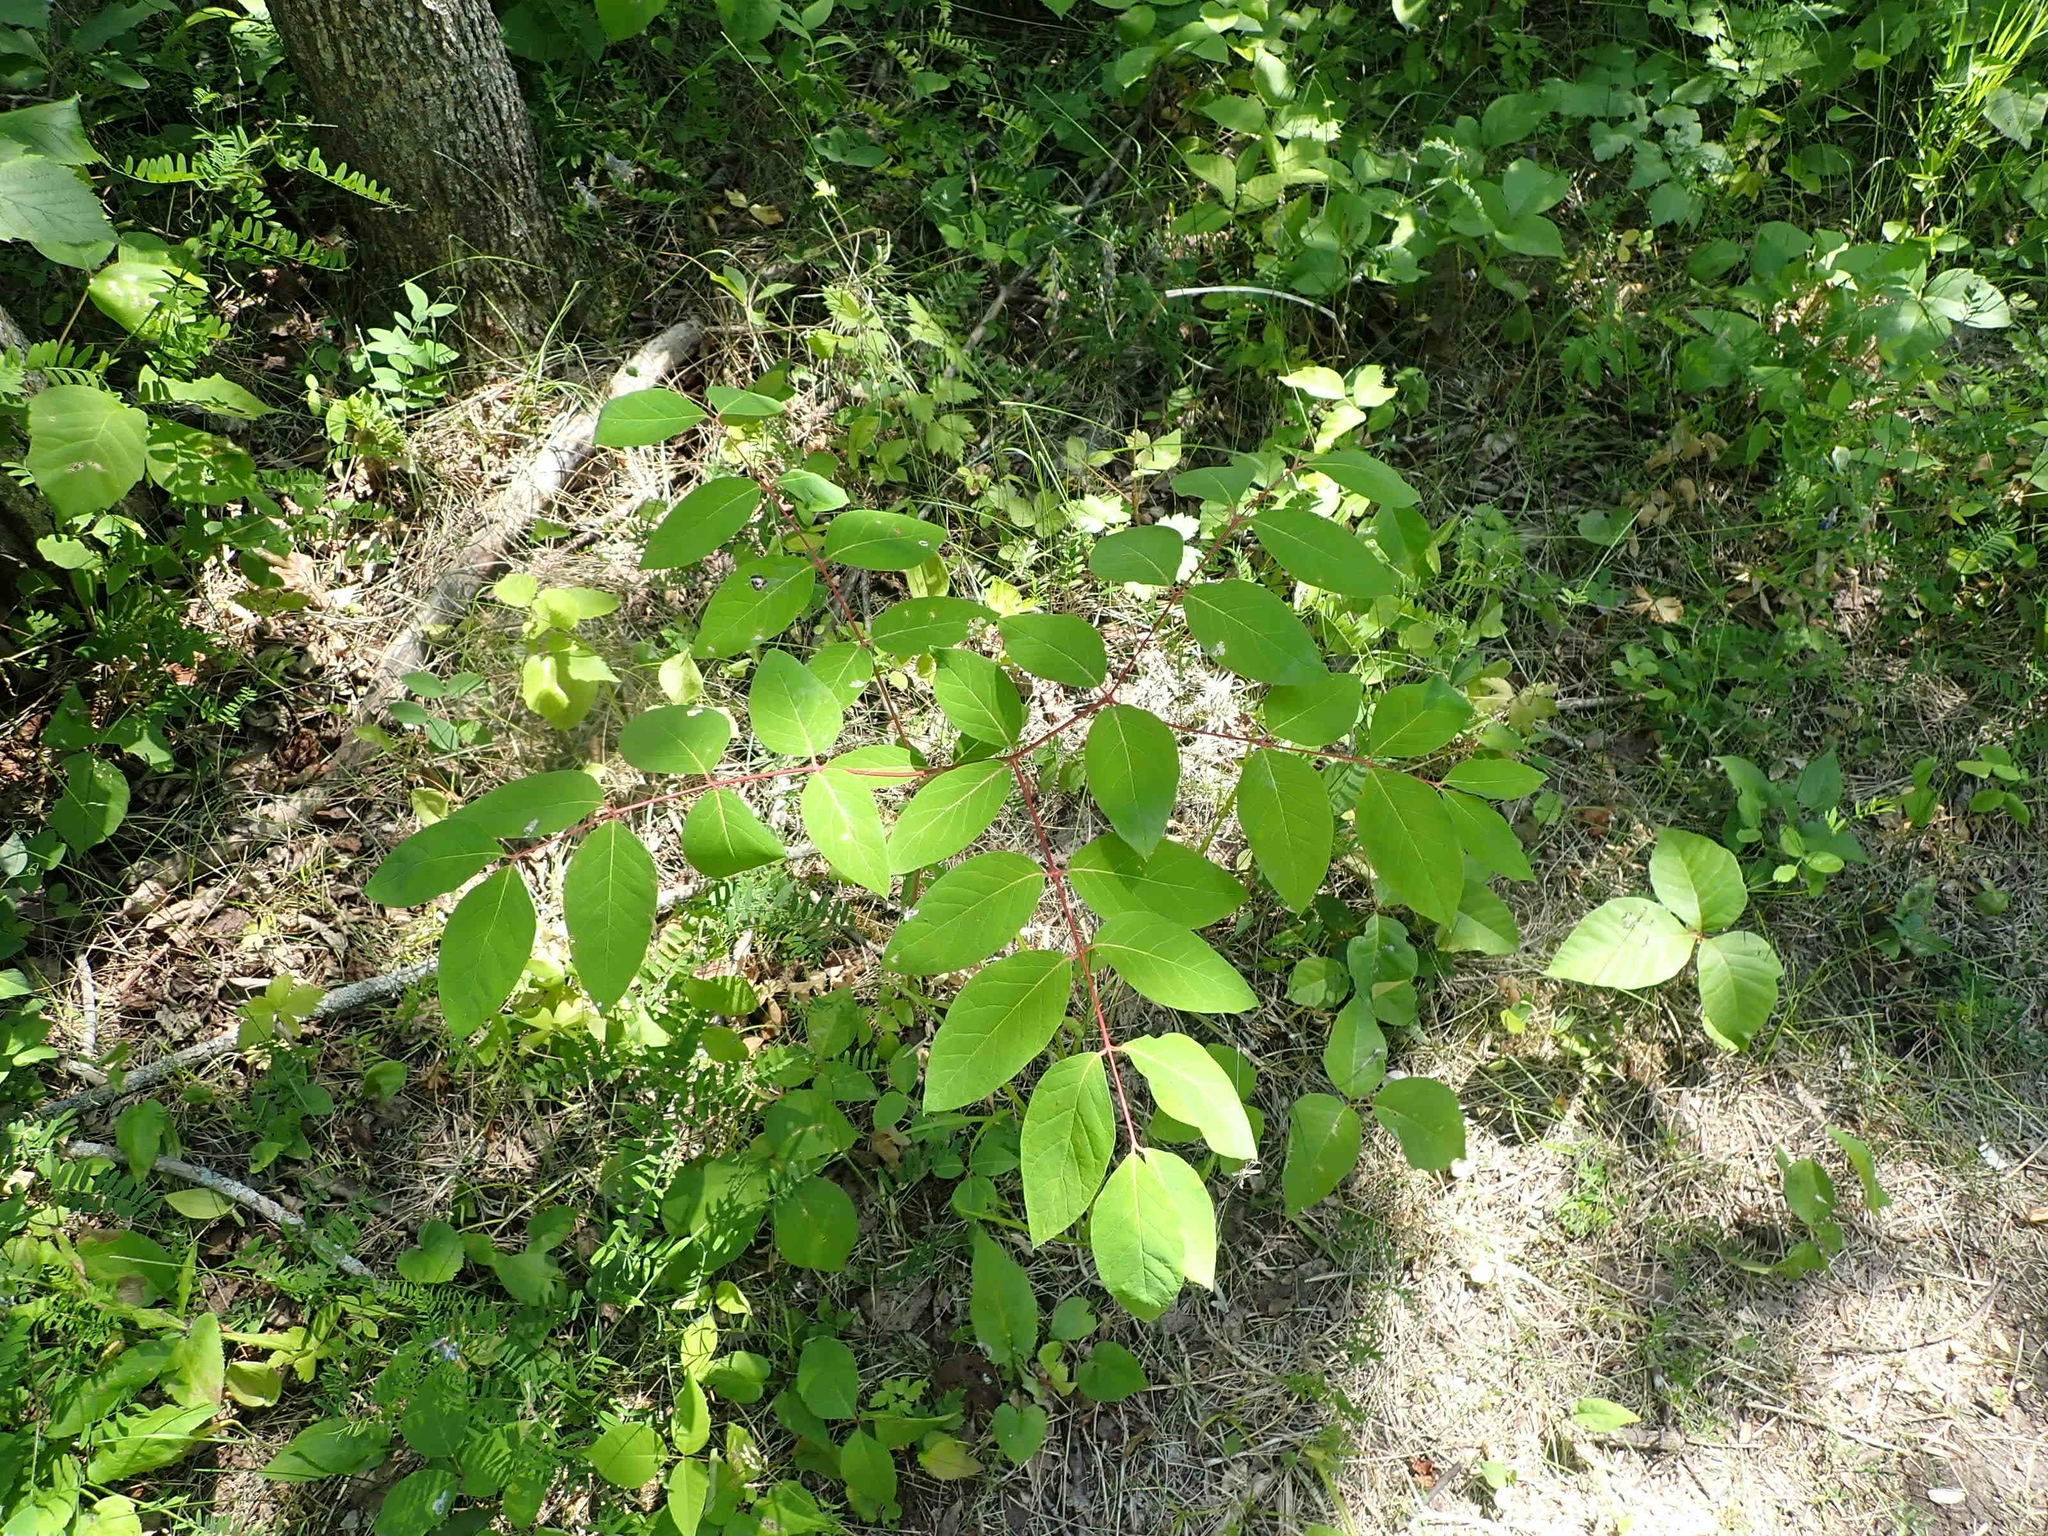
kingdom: Plantae
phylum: Tracheophyta
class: Magnoliopsida
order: Gentianales
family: Apocynaceae
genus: Apocynum
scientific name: Apocynum androsaemifolium
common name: Spreading dogbane
